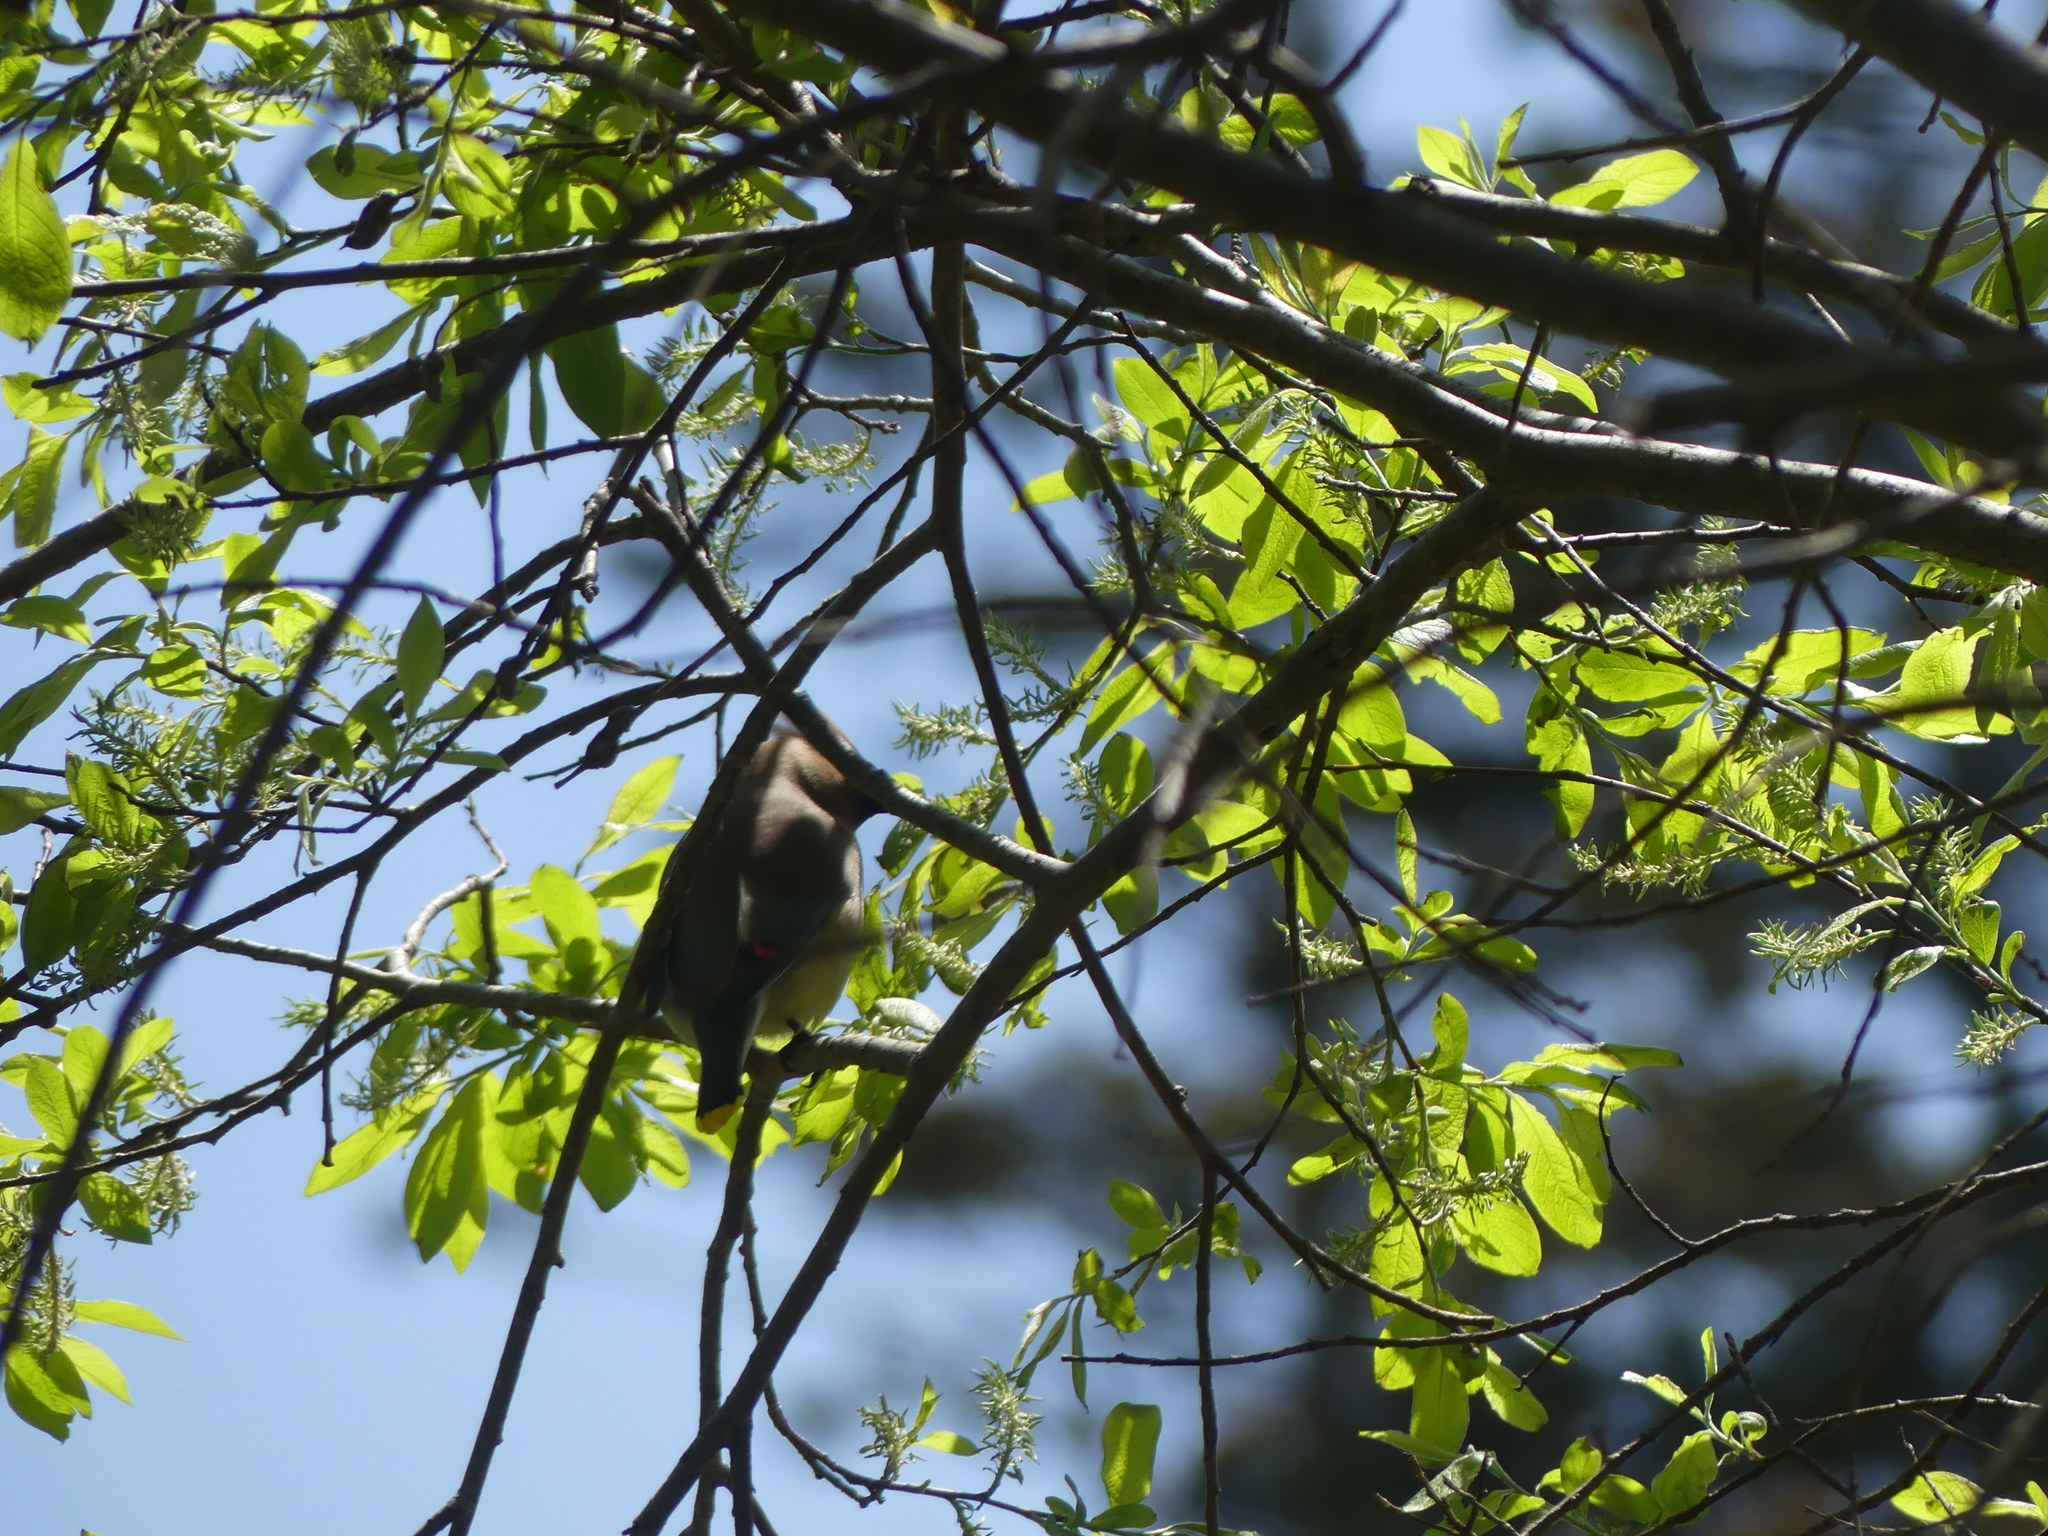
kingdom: Animalia
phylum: Chordata
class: Aves
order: Passeriformes
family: Bombycillidae
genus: Bombycilla
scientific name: Bombycilla cedrorum
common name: Cedar waxwing
